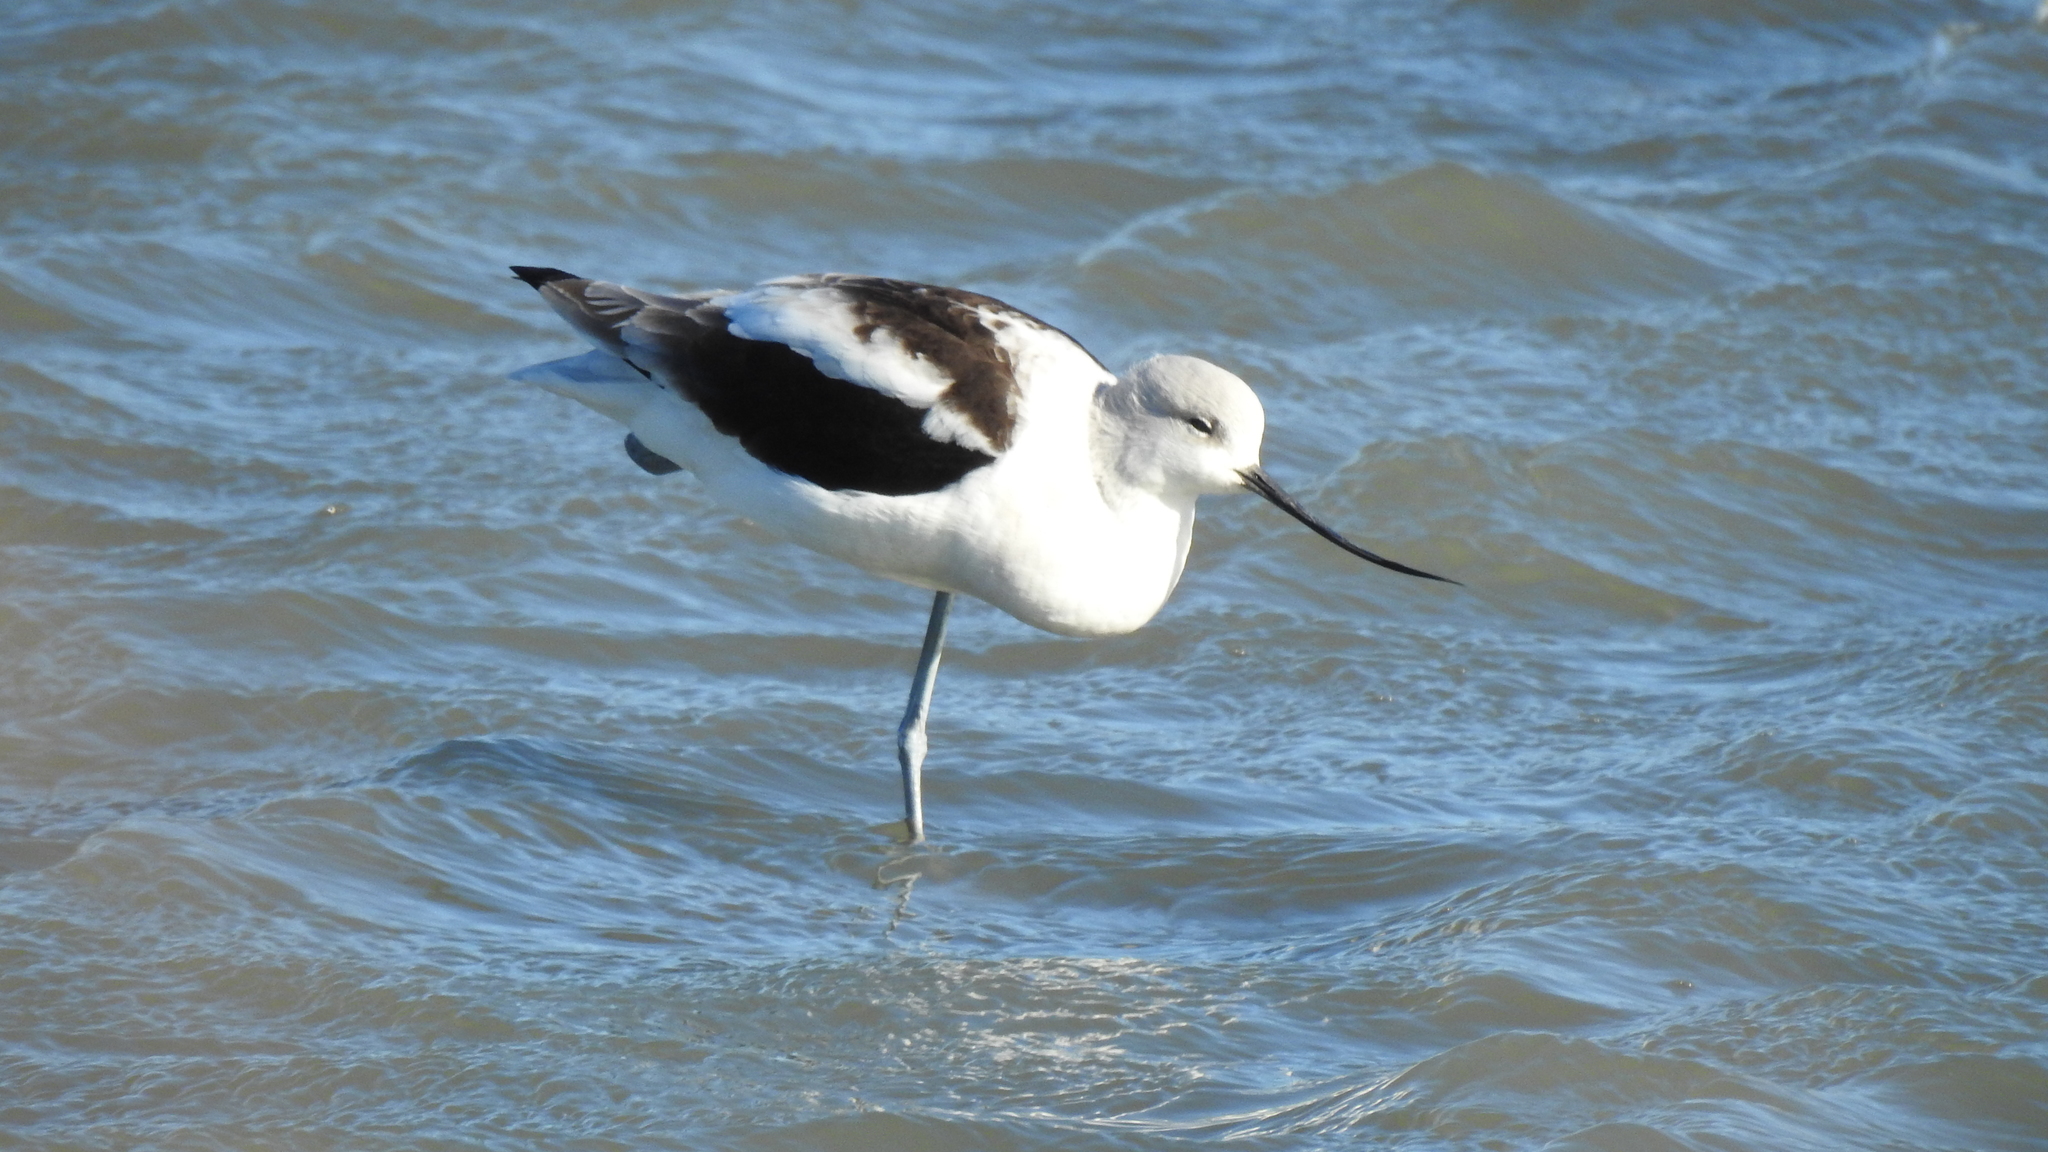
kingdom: Animalia
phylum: Chordata
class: Aves
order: Charadriiformes
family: Recurvirostridae
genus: Recurvirostra
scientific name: Recurvirostra americana
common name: American avocet
